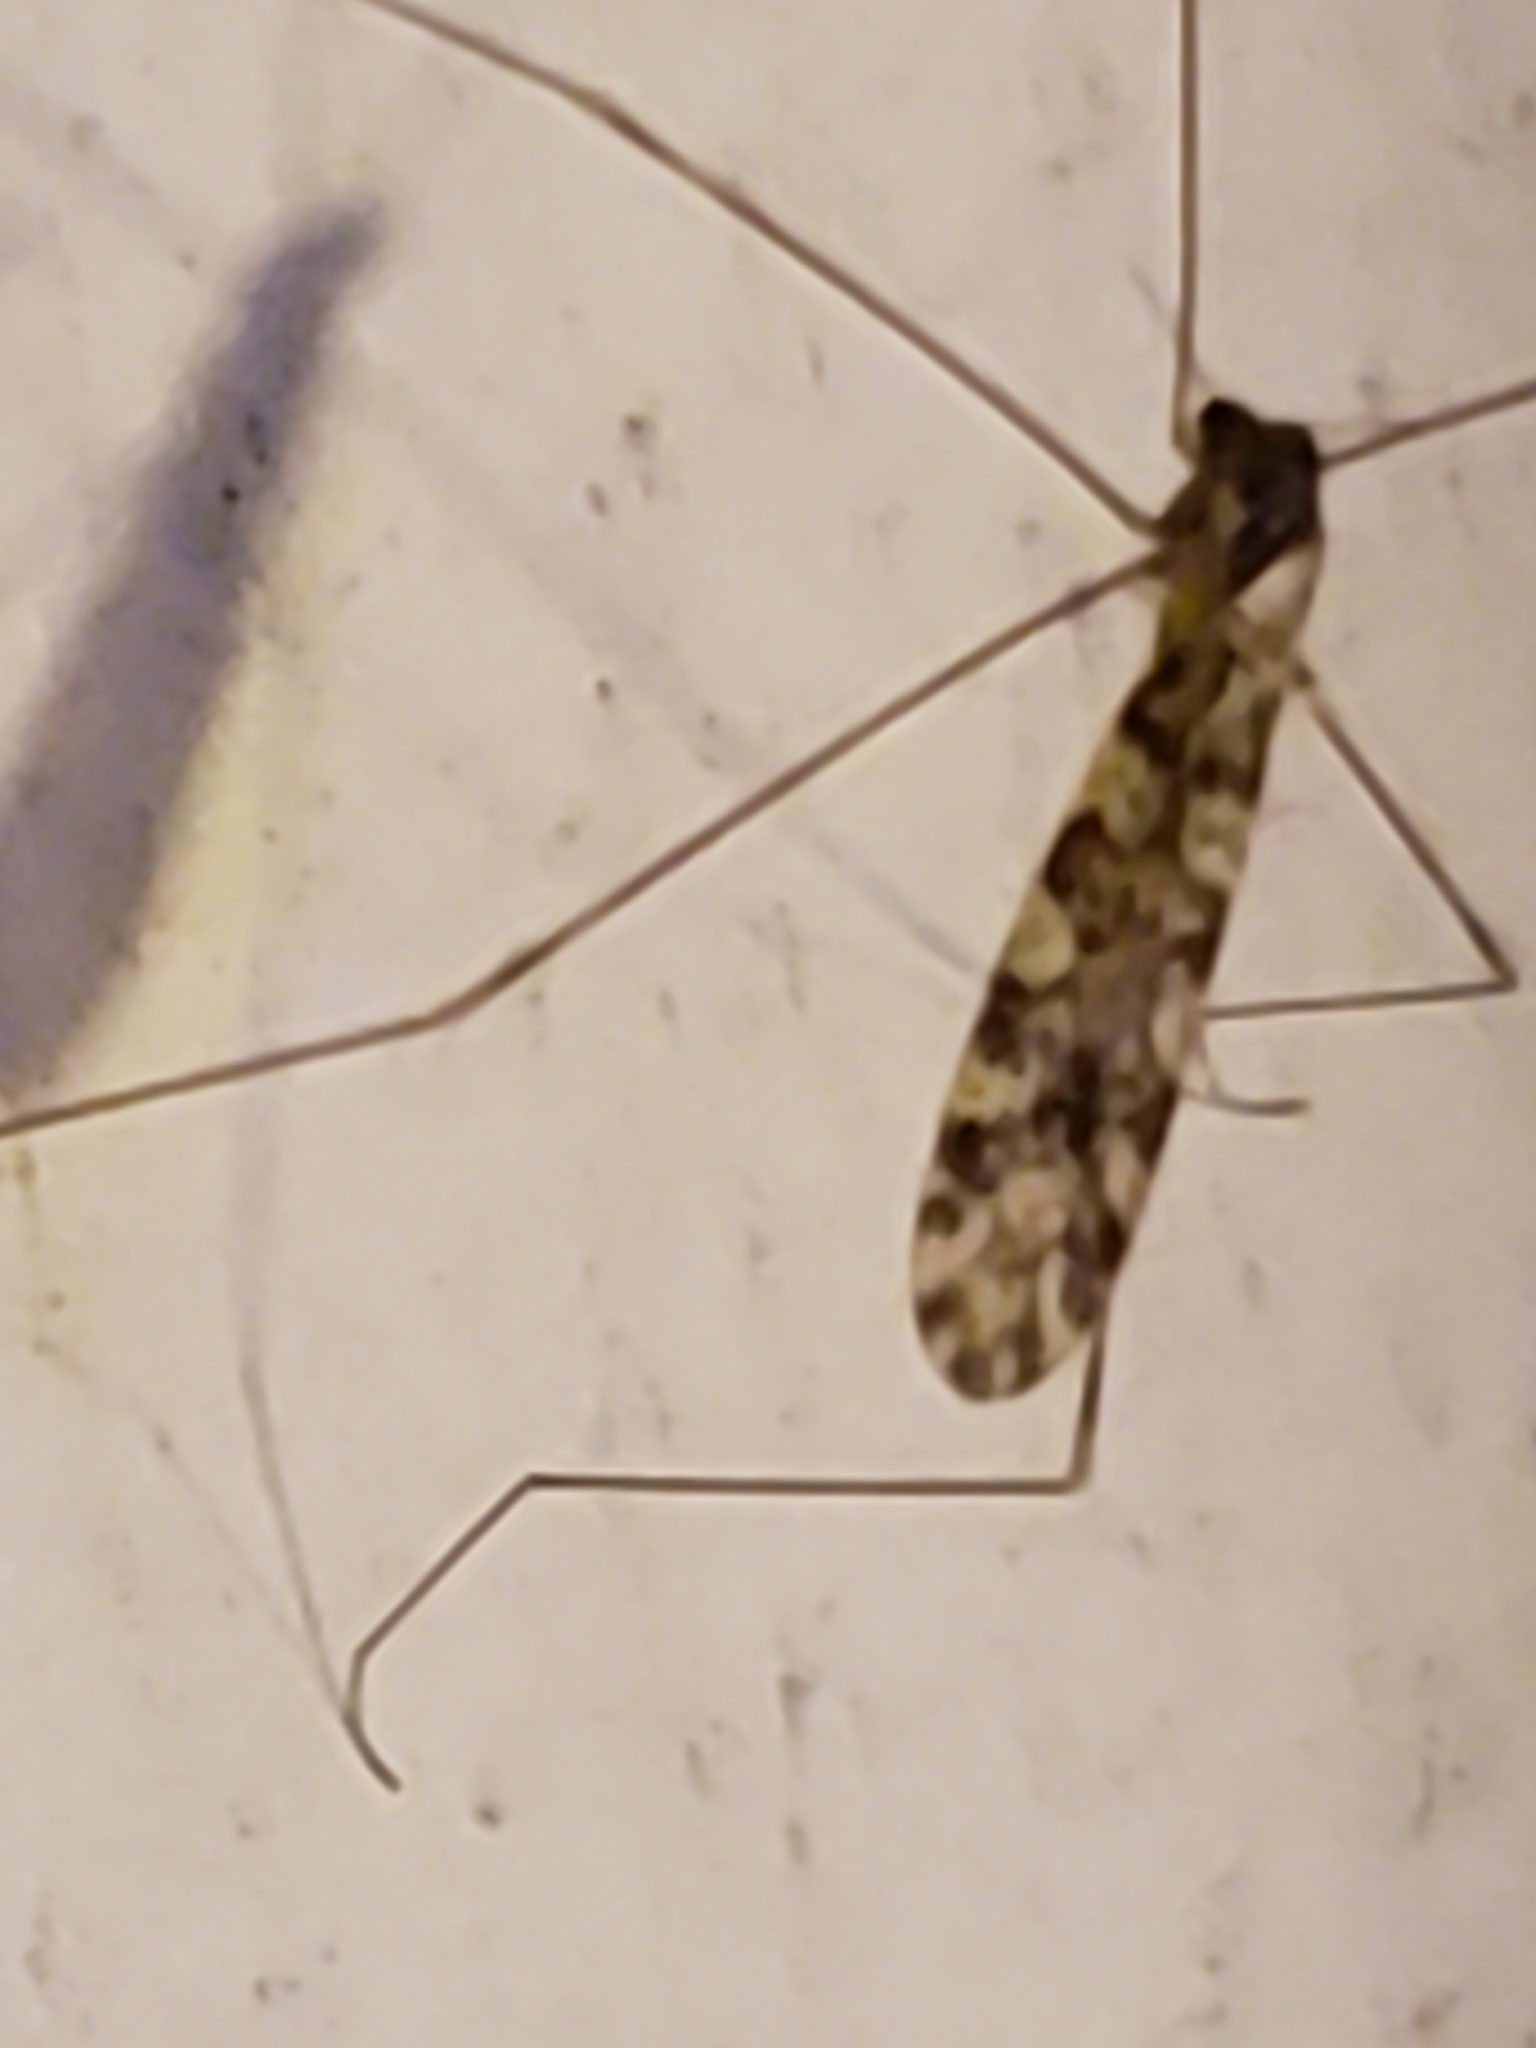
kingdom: Animalia
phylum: Arthropoda
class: Insecta
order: Diptera
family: Limoniidae
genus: Limonia
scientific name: Limonia annulata
